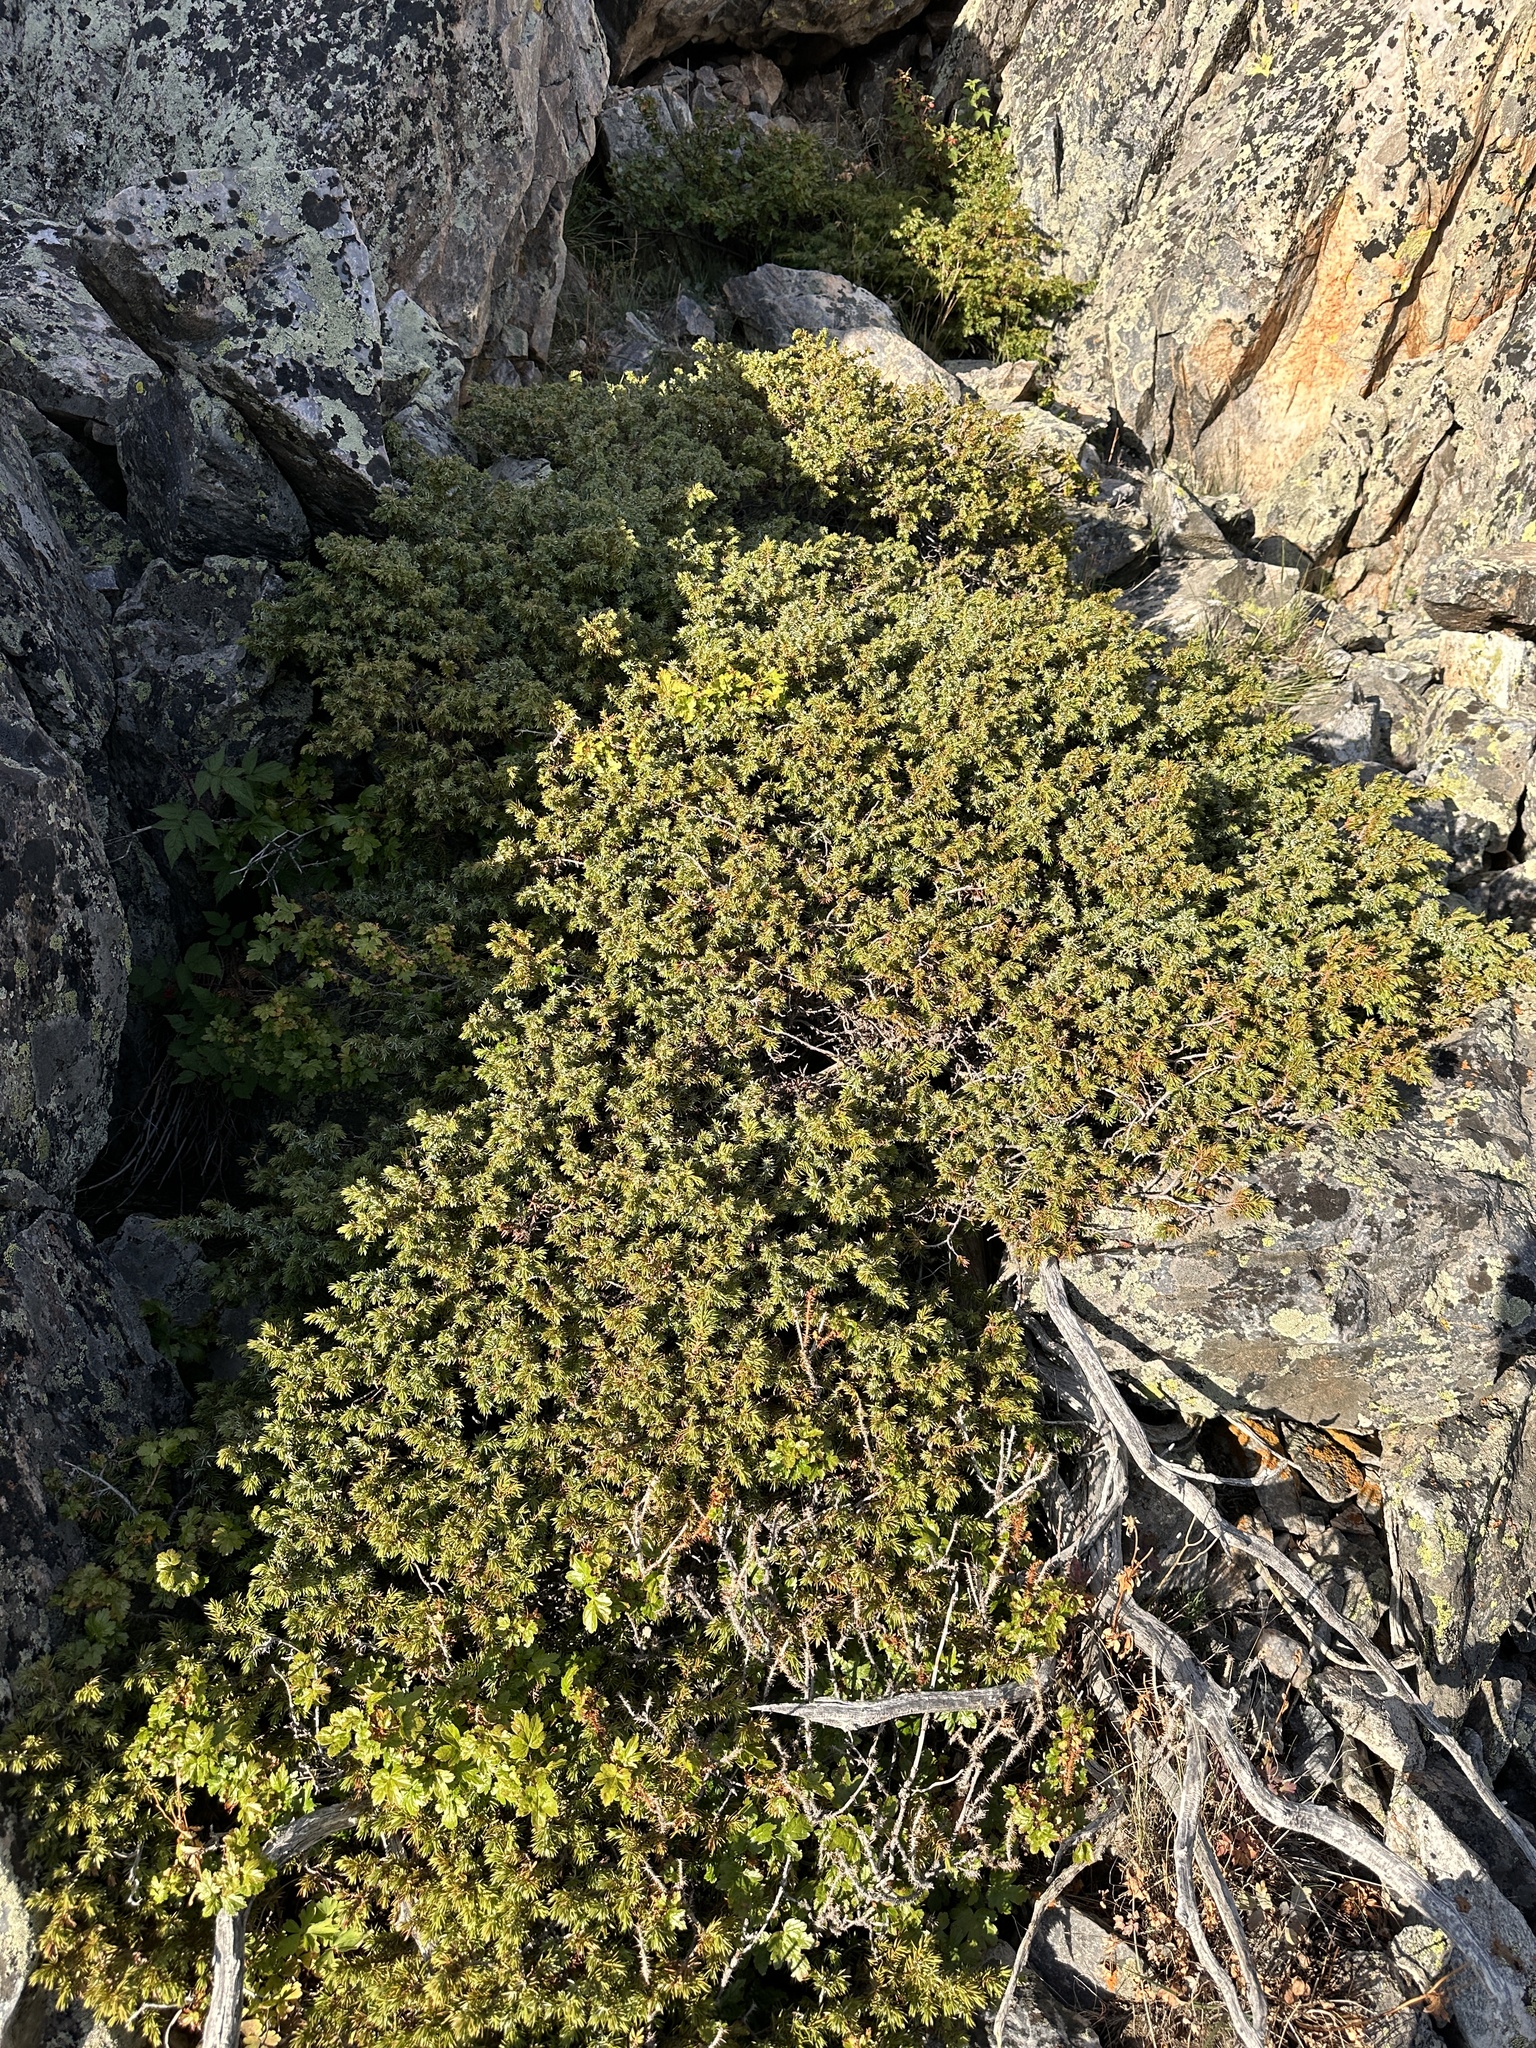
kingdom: Plantae
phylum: Tracheophyta
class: Pinopsida
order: Pinales
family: Cupressaceae
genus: Juniperus
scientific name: Juniperus communis
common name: Common juniper
